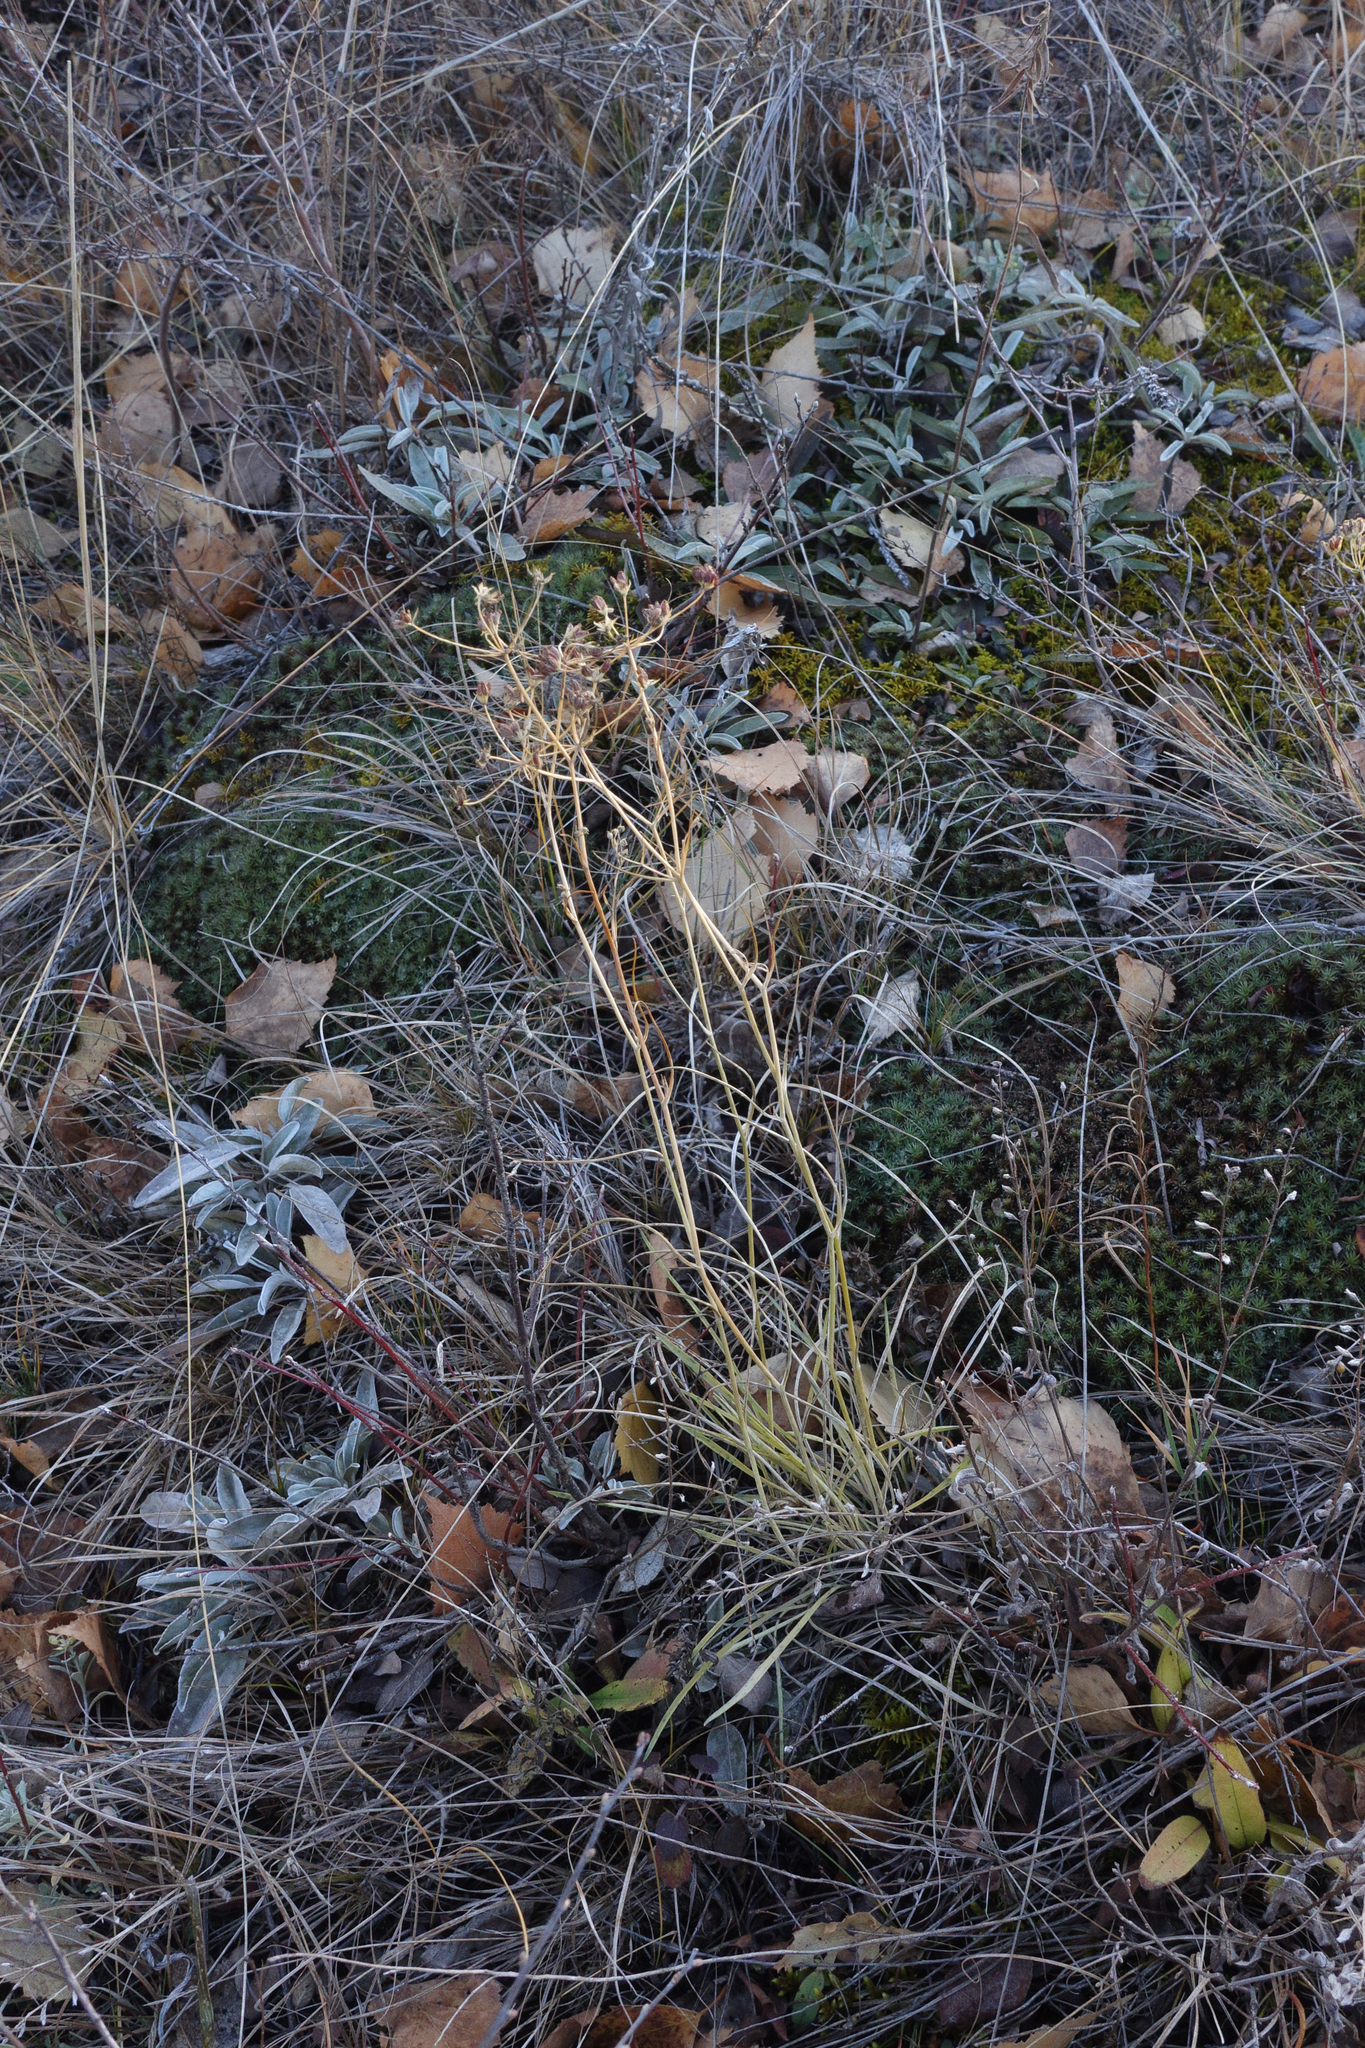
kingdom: Plantae
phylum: Tracheophyta
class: Magnoliopsida
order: Apiales
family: Apiaceae
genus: Bupleurum
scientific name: Bupleurum bicaule
